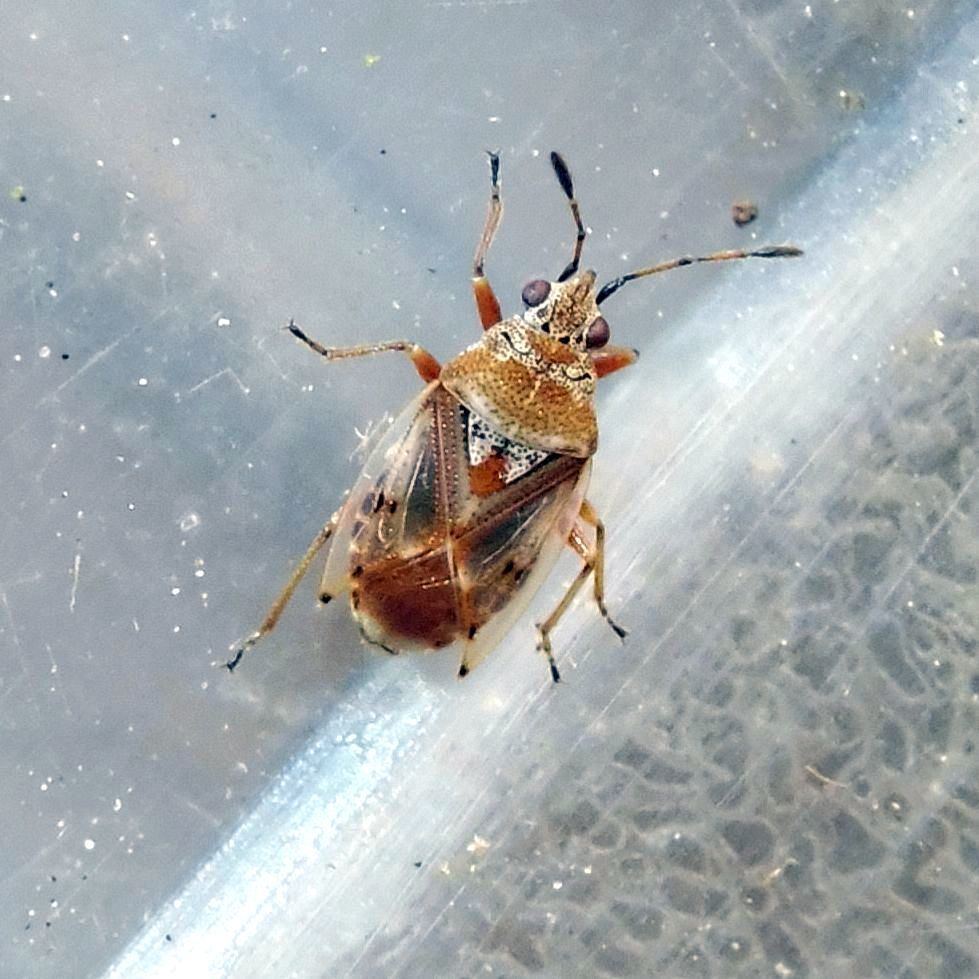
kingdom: Animalia
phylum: Arthropoda
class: Insecta
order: Hemiptera
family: Lygaeidae
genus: Kleidocerys
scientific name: Kleidocerys ericae
